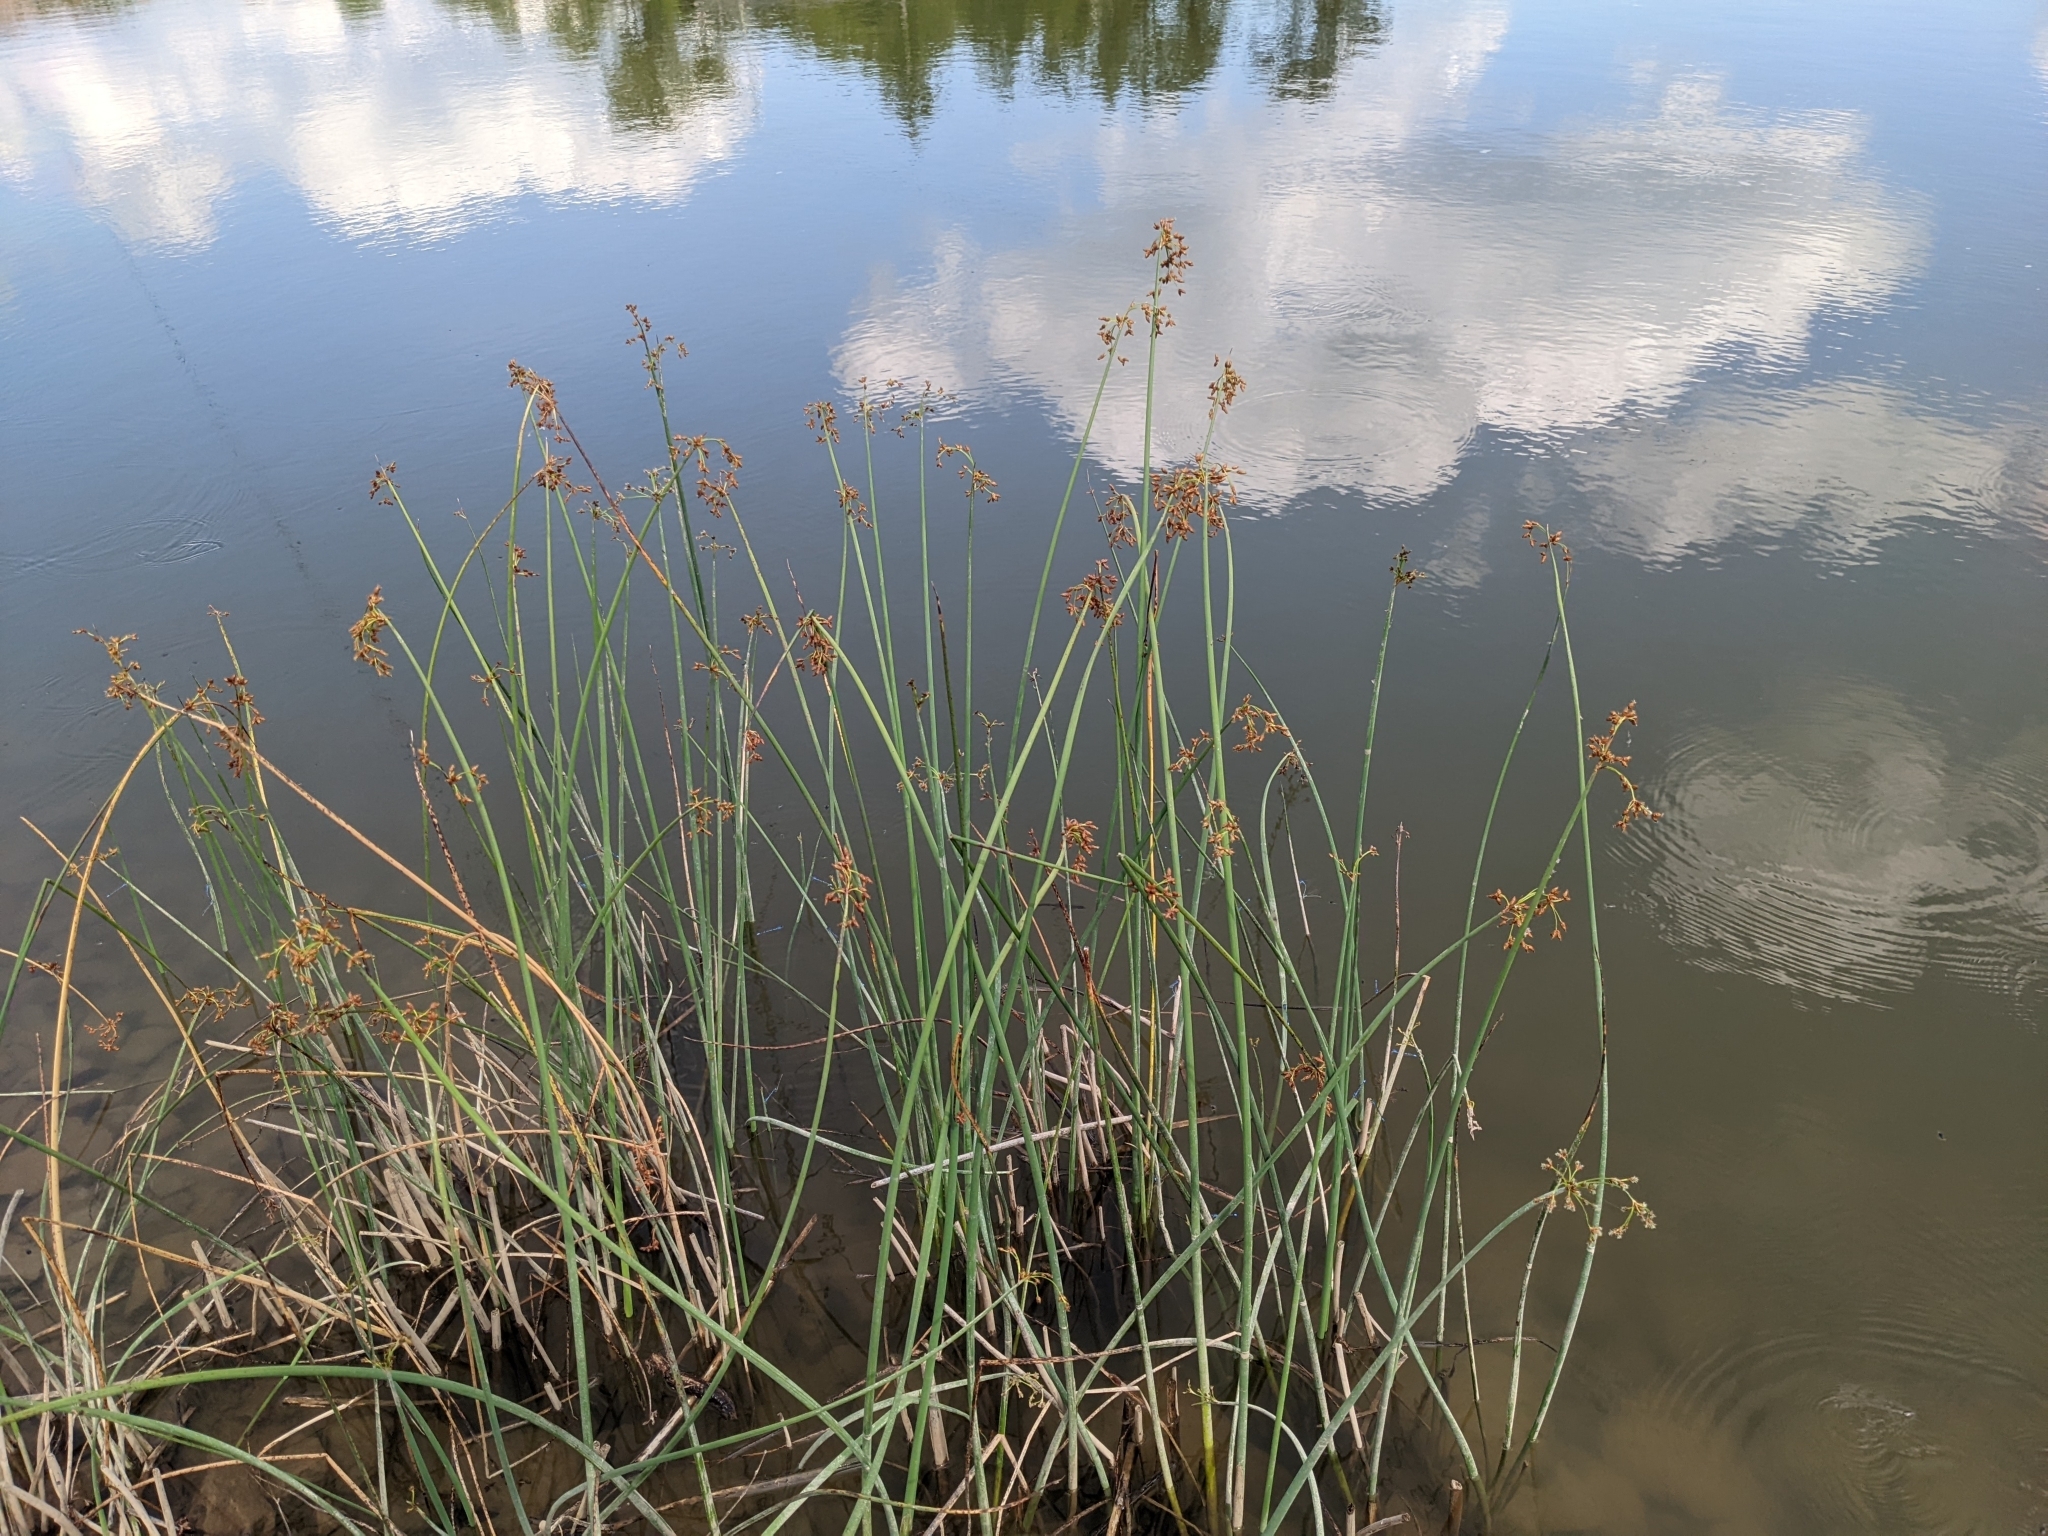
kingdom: Plantae
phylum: Tracheophyta
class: Liliopsida
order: Poales
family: Cyperaceae
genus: Schoenoplectus
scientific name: Schoenoplectus tabernaemontani
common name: Grey club-rush
